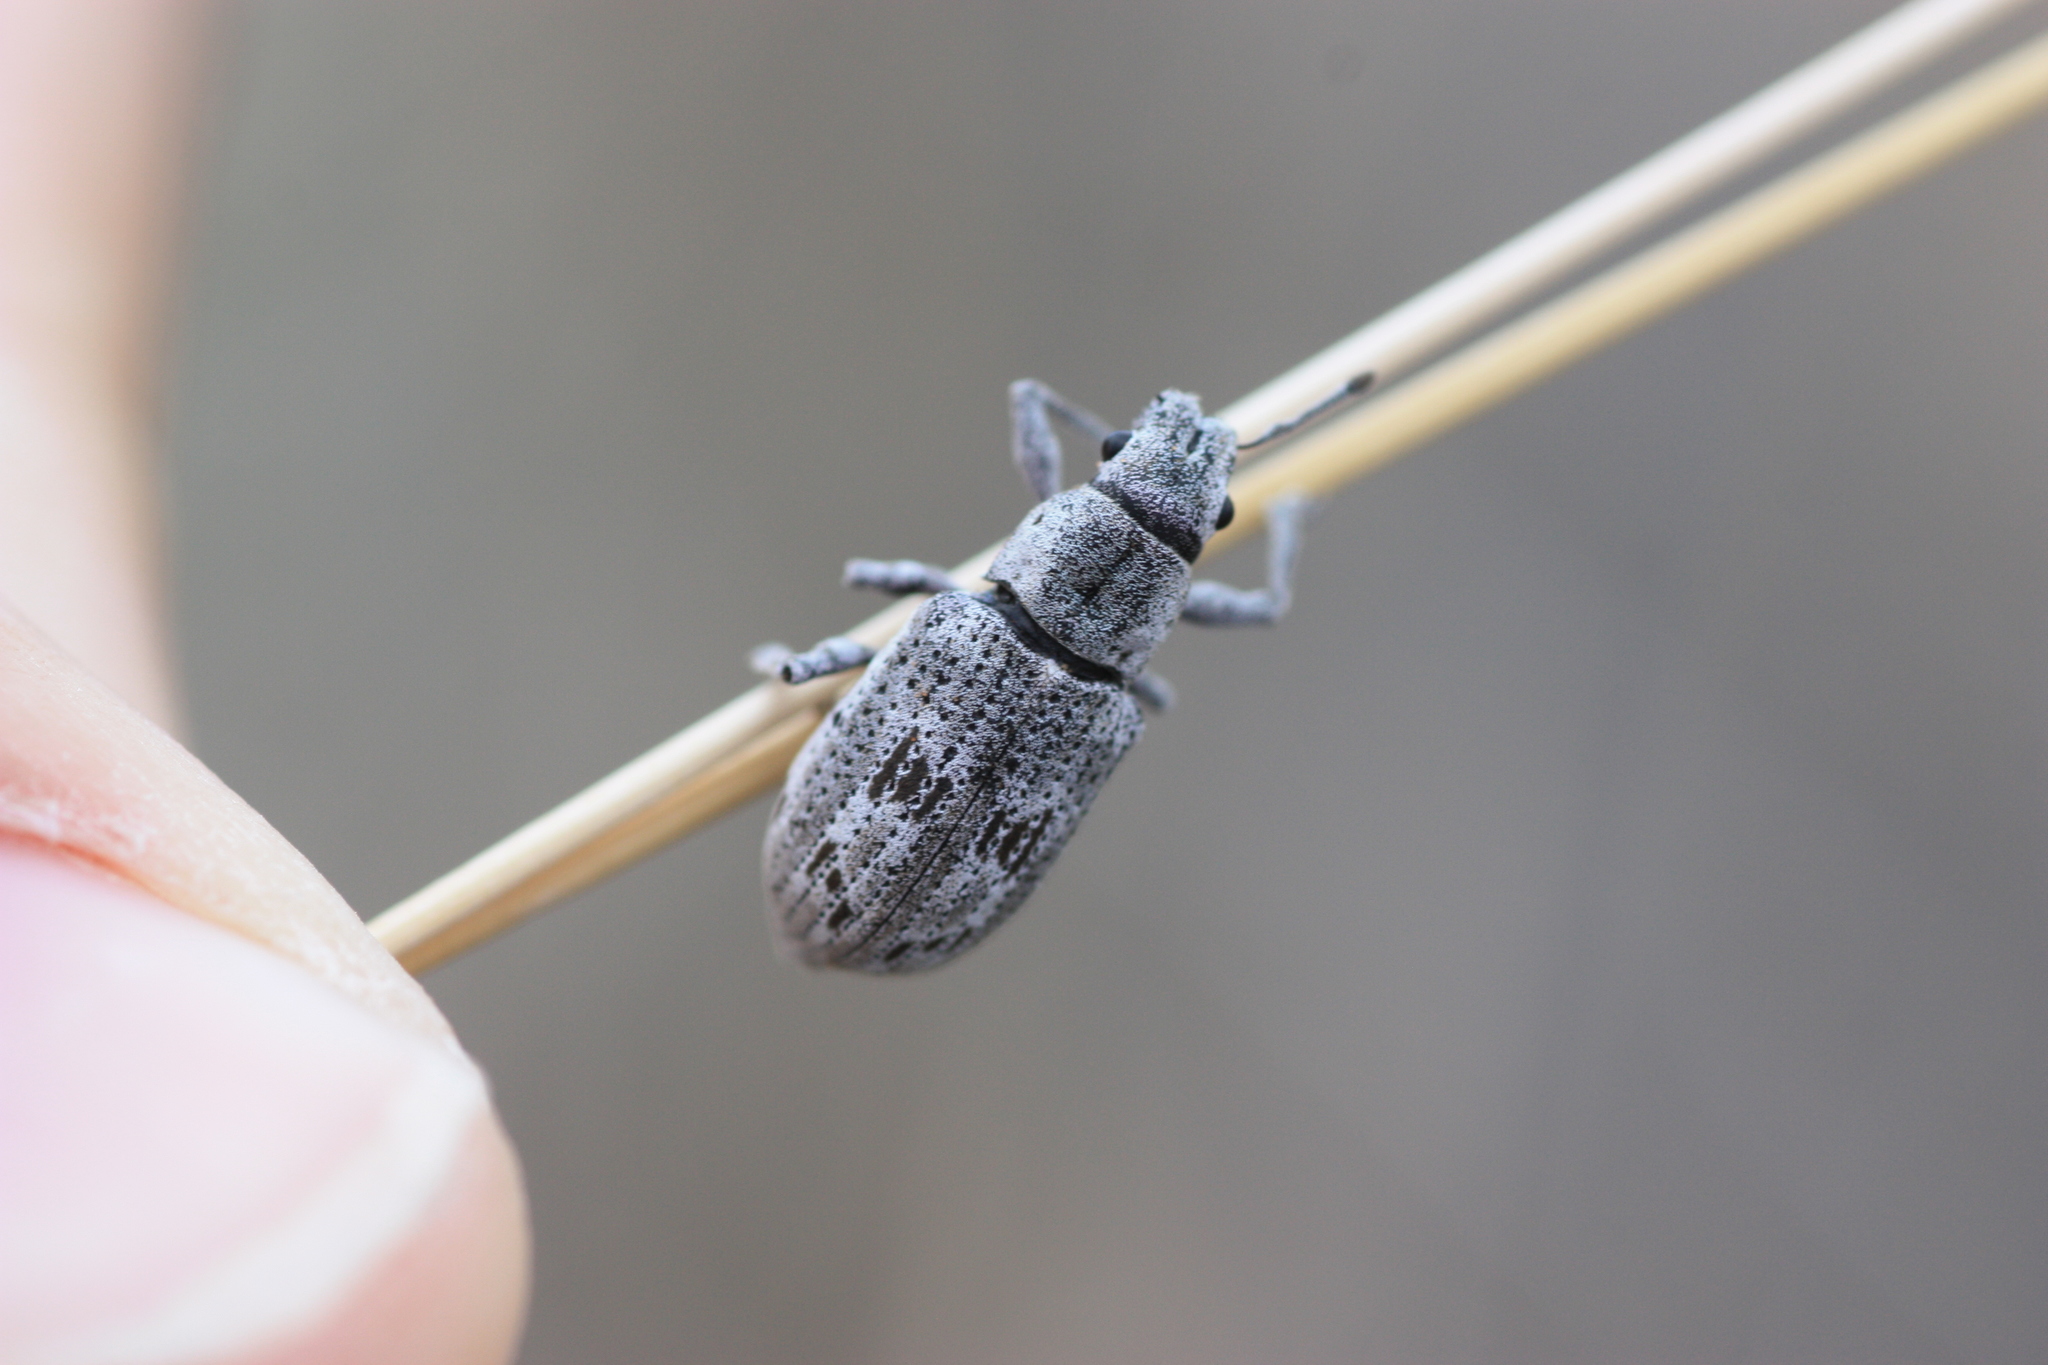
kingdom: Animalia
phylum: Arthropoda
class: Insecta
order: Coleoptera
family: Curculionidae
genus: Ericydeus
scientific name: Ericydeus lautus
